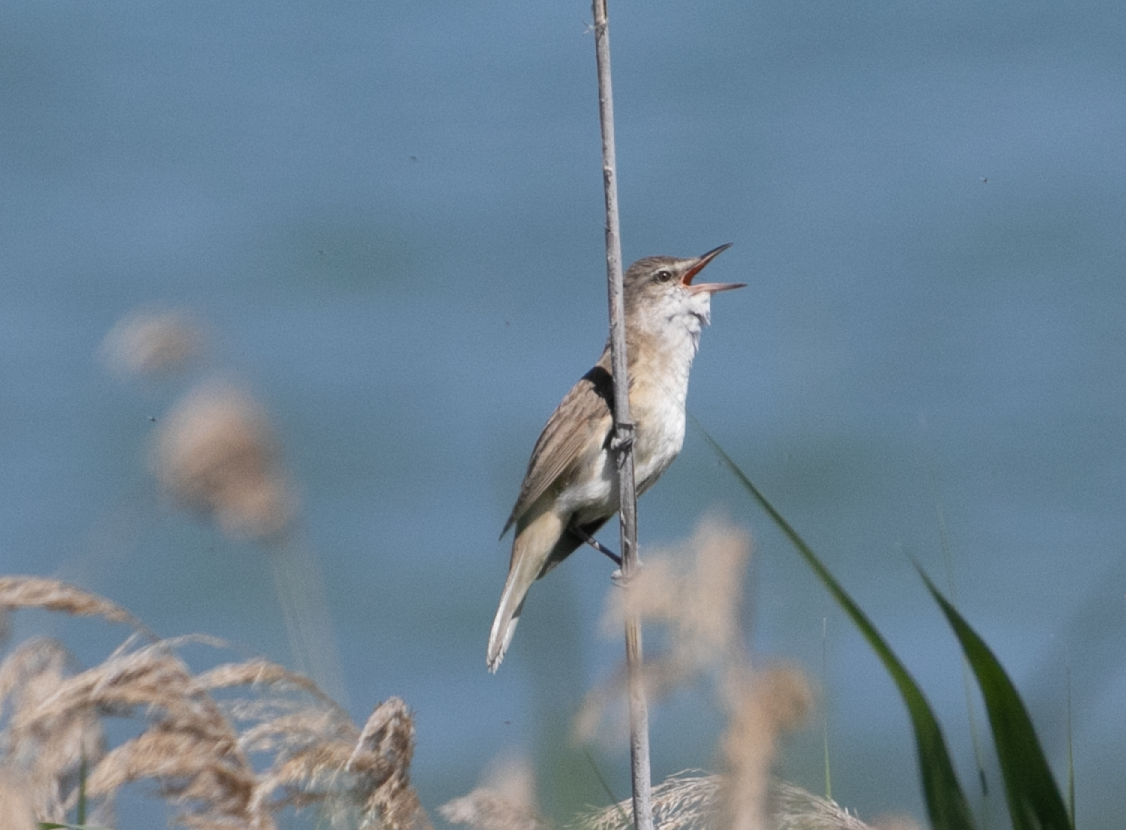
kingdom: Animalia
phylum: Chordata
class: Aves
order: Passeriformes
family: Acrocephalidae
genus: Acrocephalus
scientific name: Acrocephalus arundinaceus
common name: Great reed warbler
